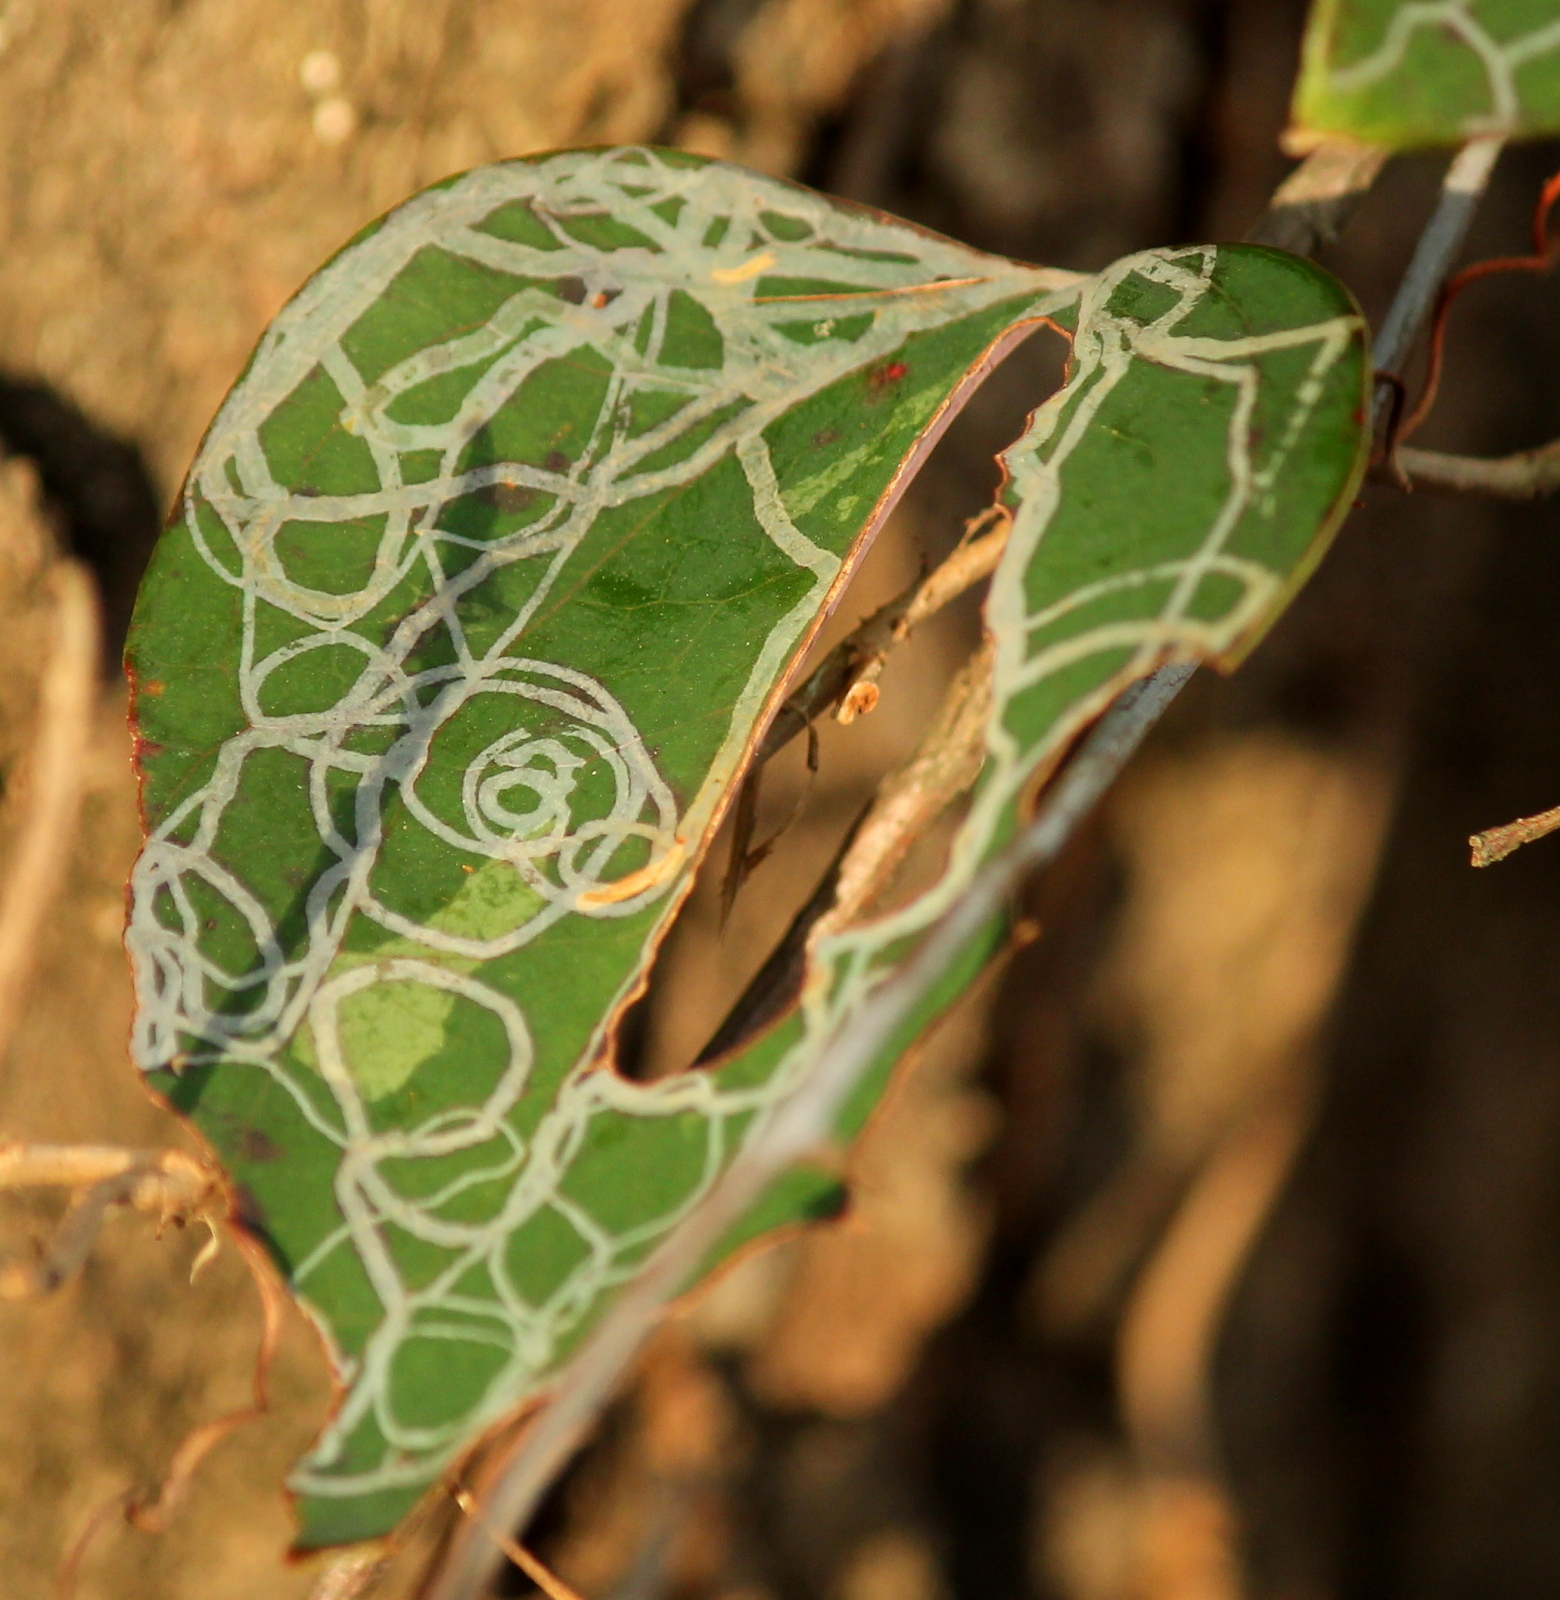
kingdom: Animalia
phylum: Arthropoda
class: Insecta
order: Lepidoptera
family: Gracillariidae
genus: Marmara
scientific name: Marmara smilacisella
